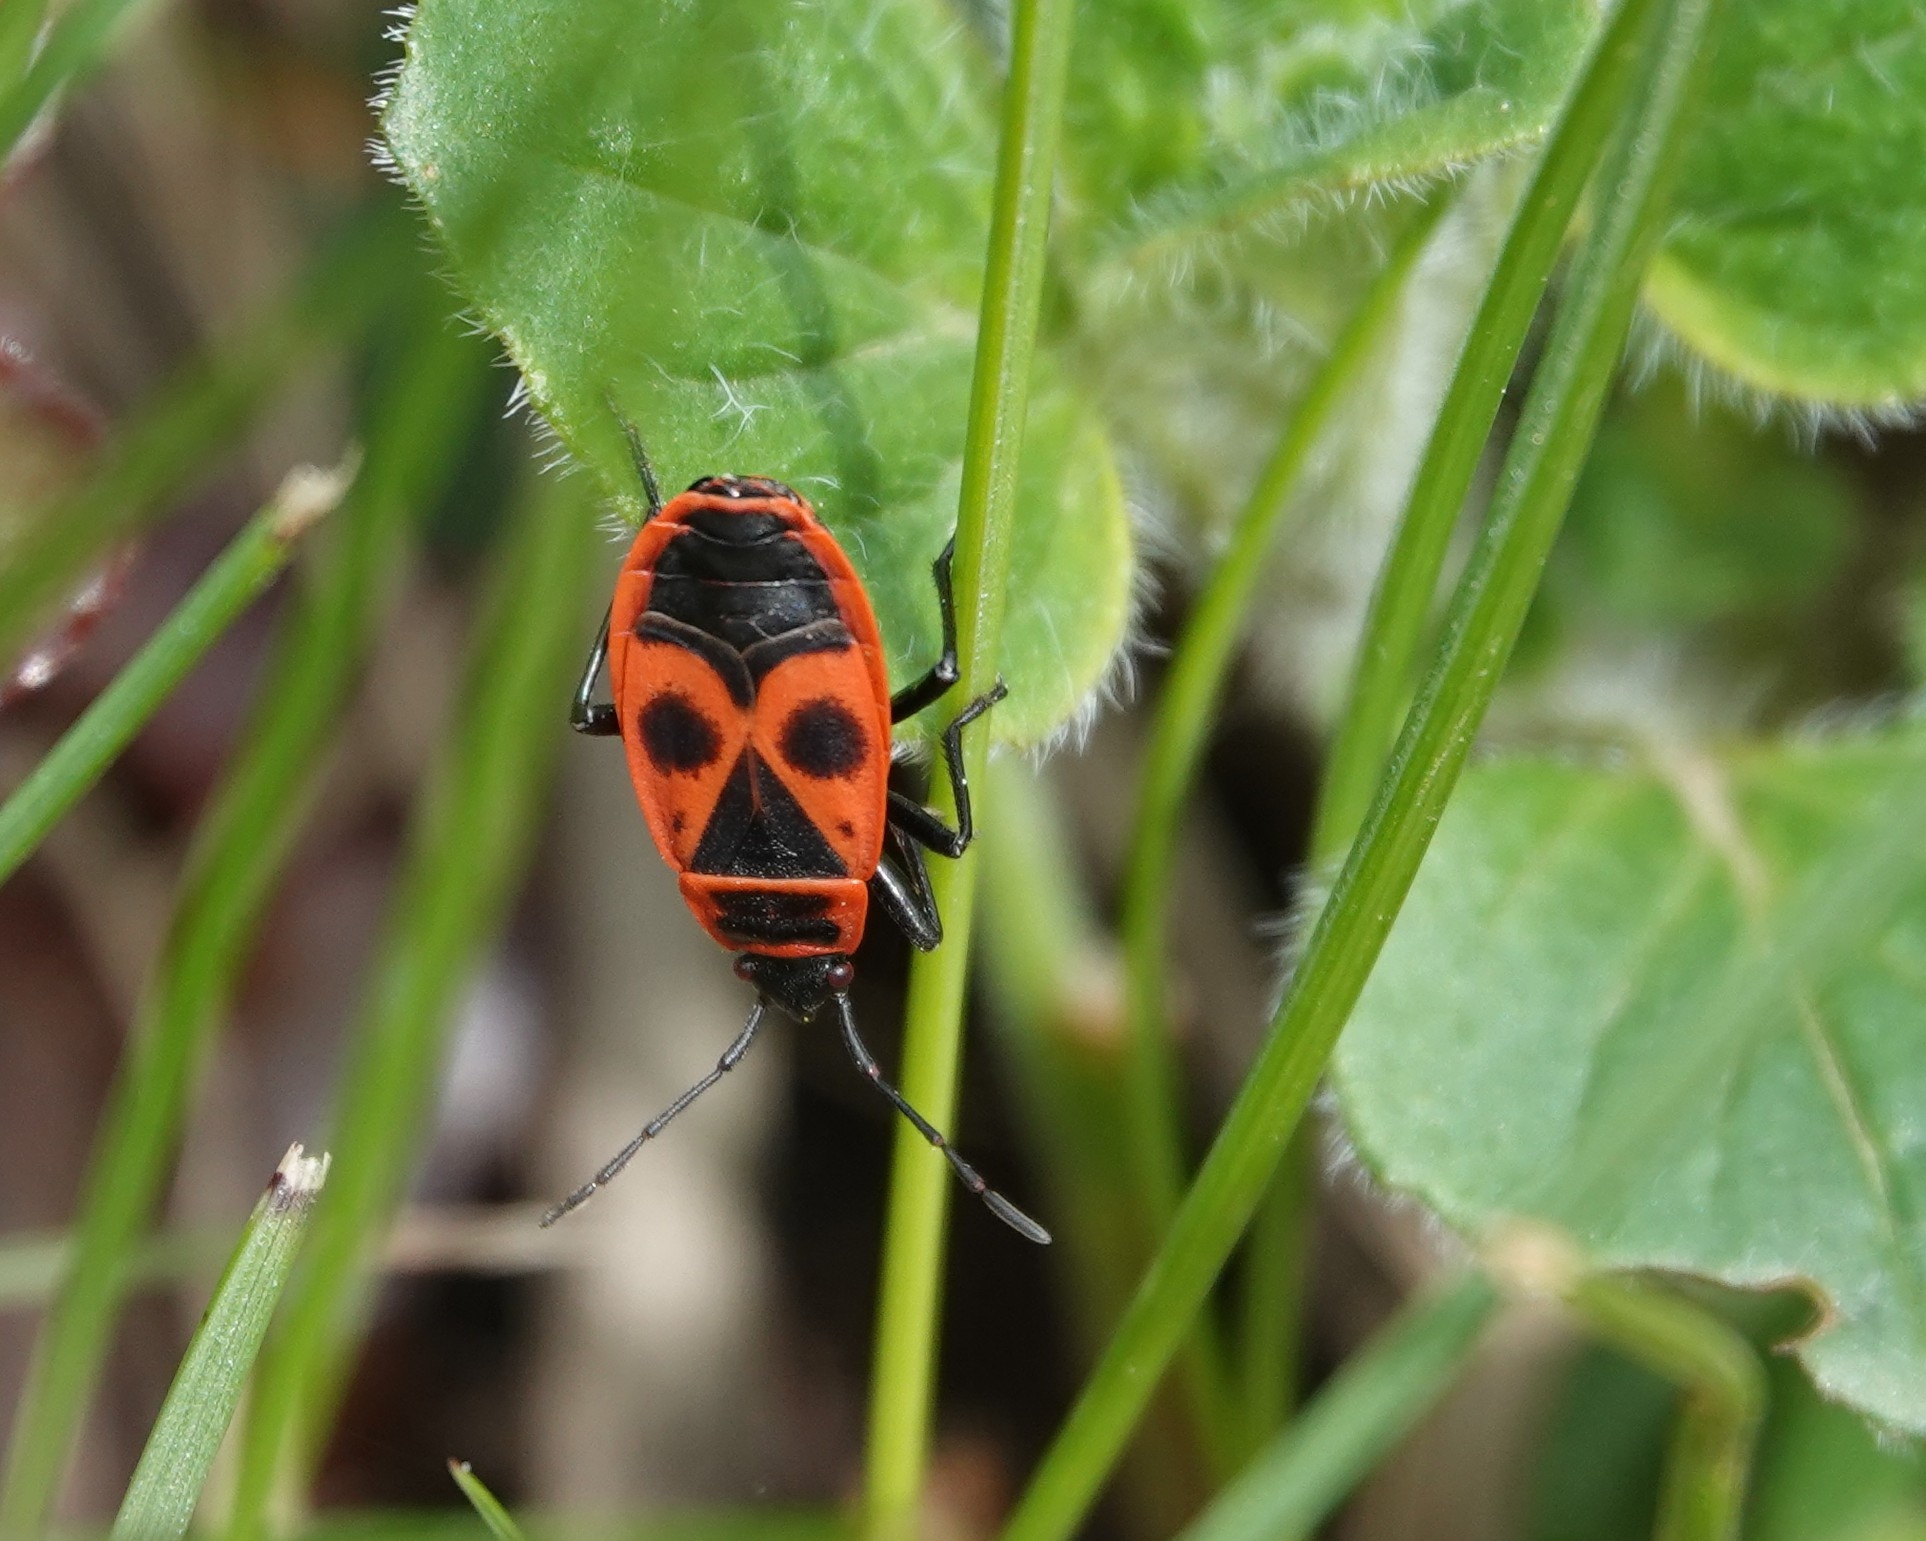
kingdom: Animalia
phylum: Arthropoda
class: Insecta
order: Hemiptera
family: Pyrrhocoridae
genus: Pyrrhocoris
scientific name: Pyrrhocoris apterus
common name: Firebug
